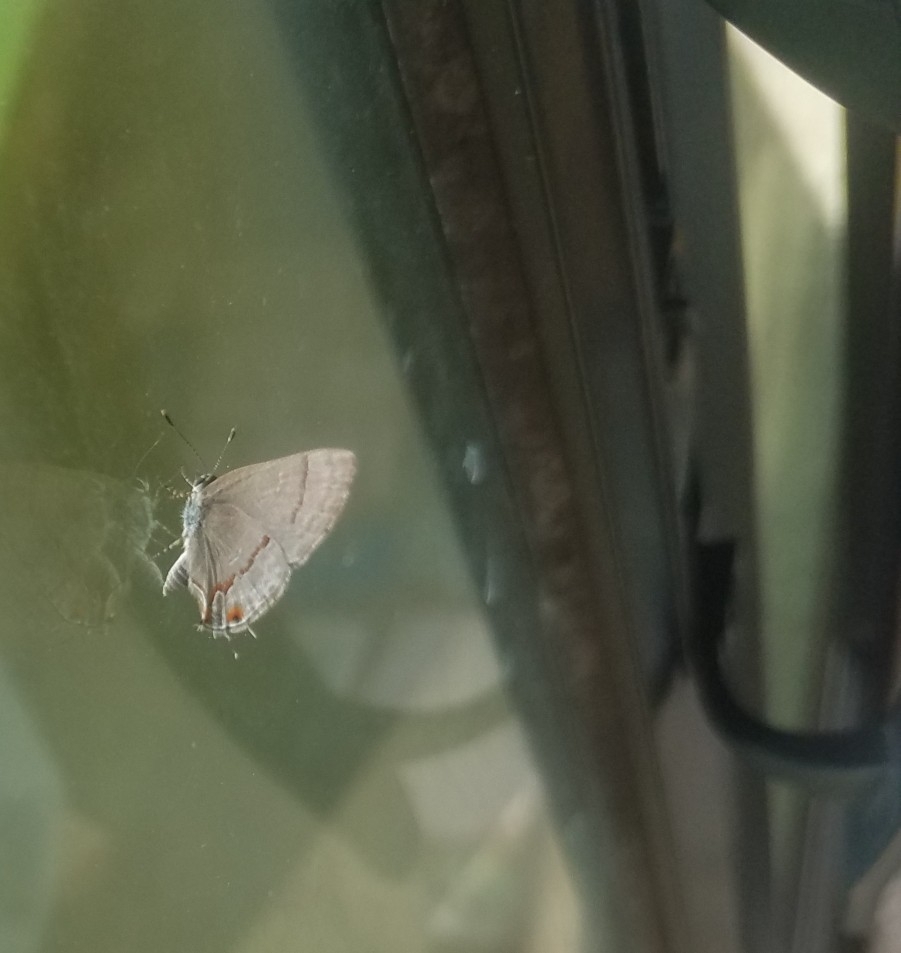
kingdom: Animalia
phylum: Arthropoda
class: Insecta
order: Lepidoptera
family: Lycaenidae
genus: Rubroserrata
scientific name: Rubroserrata mathewi
